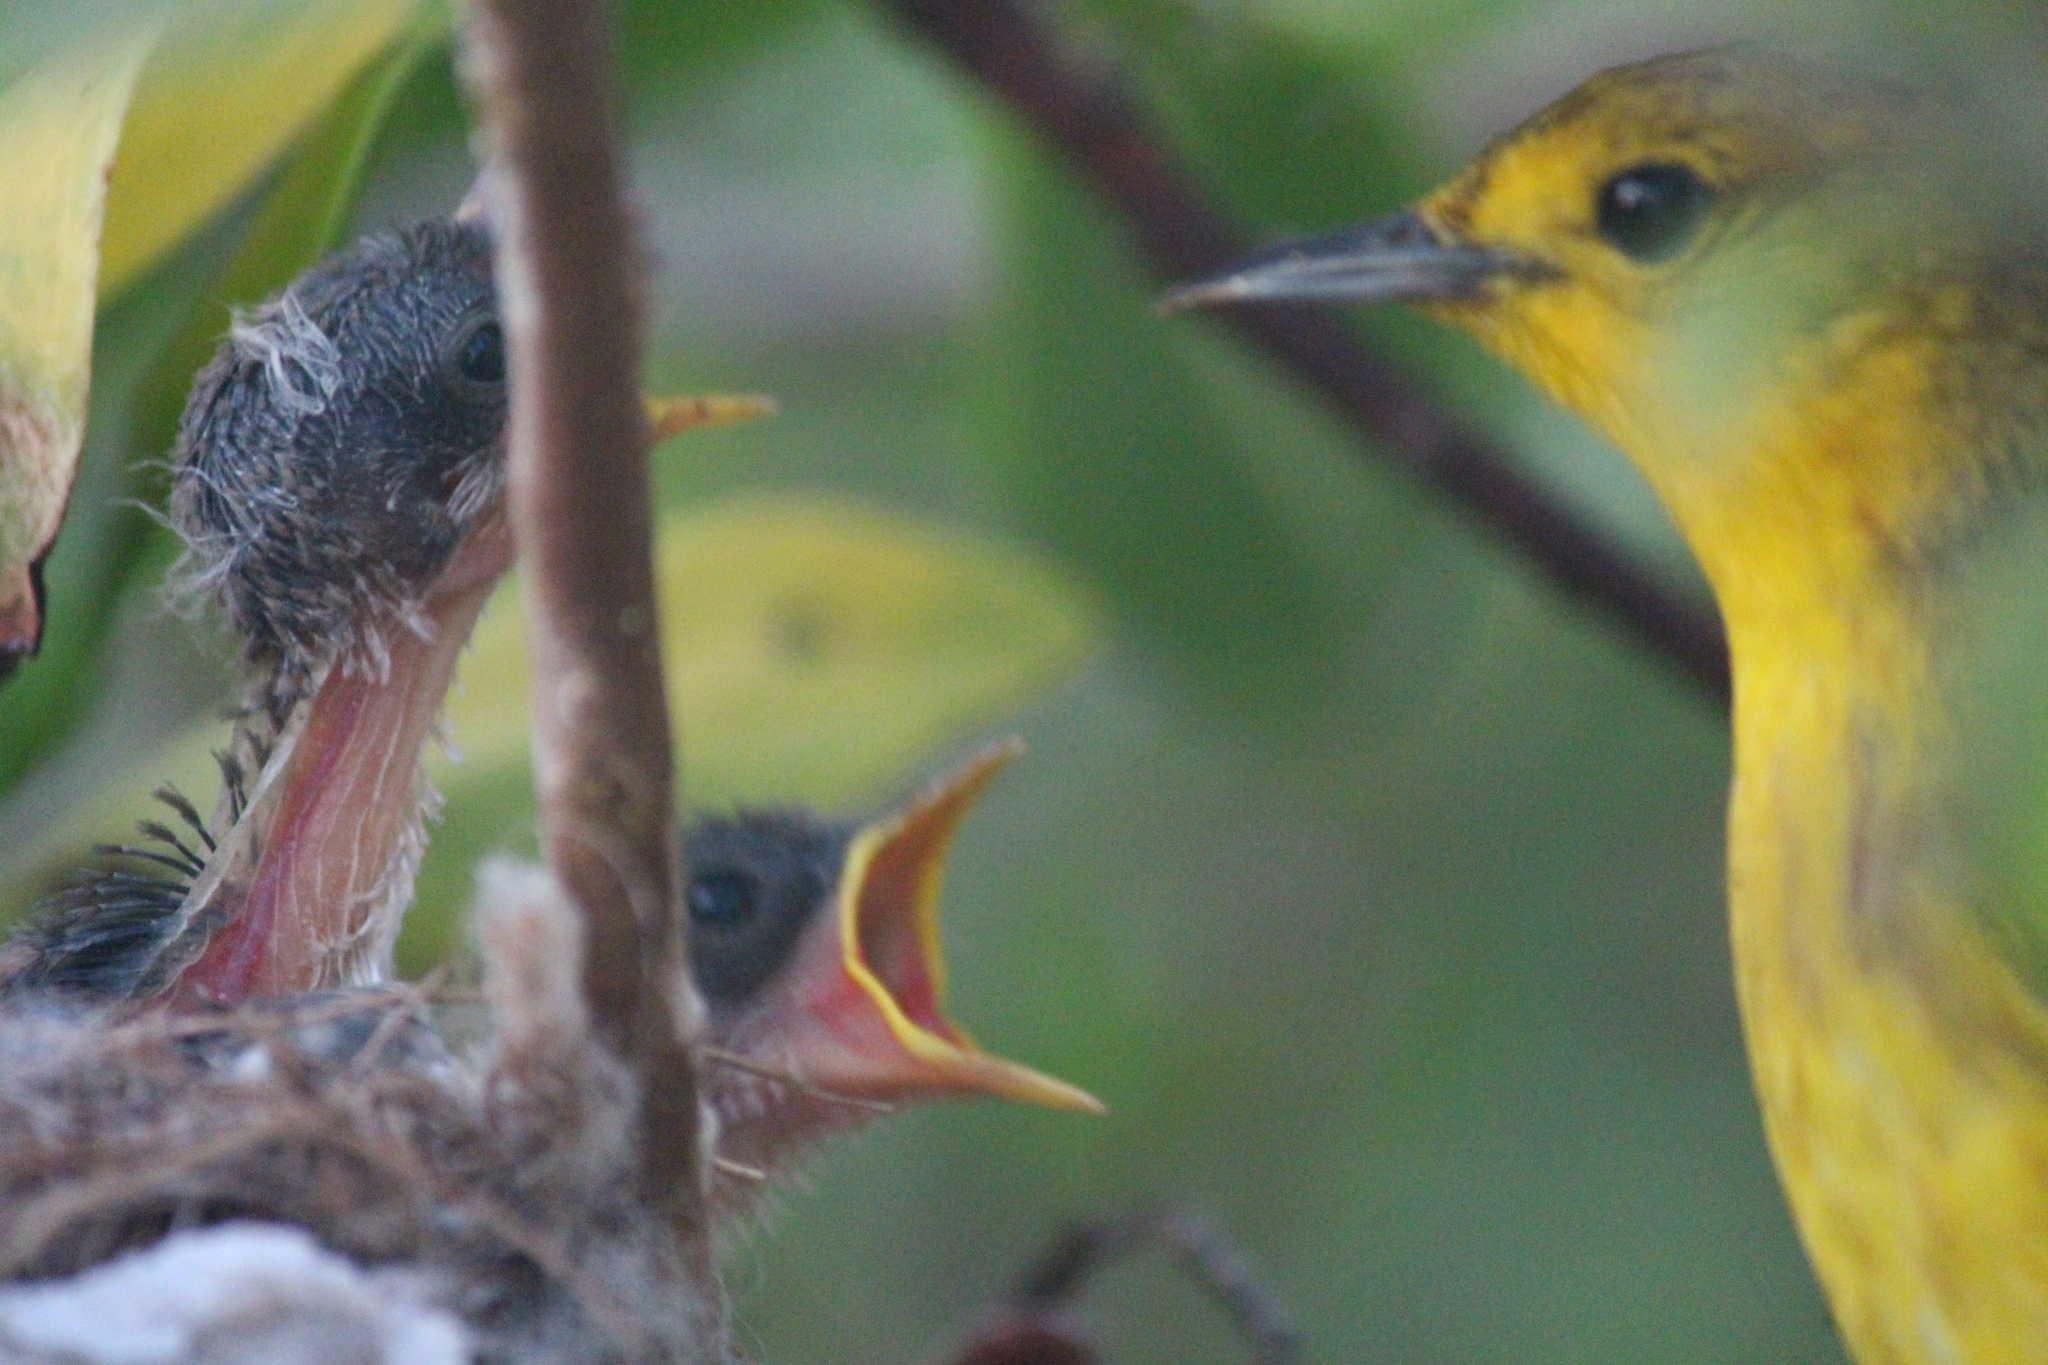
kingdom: Animalia
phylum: Chordata
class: Aves
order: Passeriformes
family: Parulidae
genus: Setophaga
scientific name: Setophaga petechia
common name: Yellow warbler
